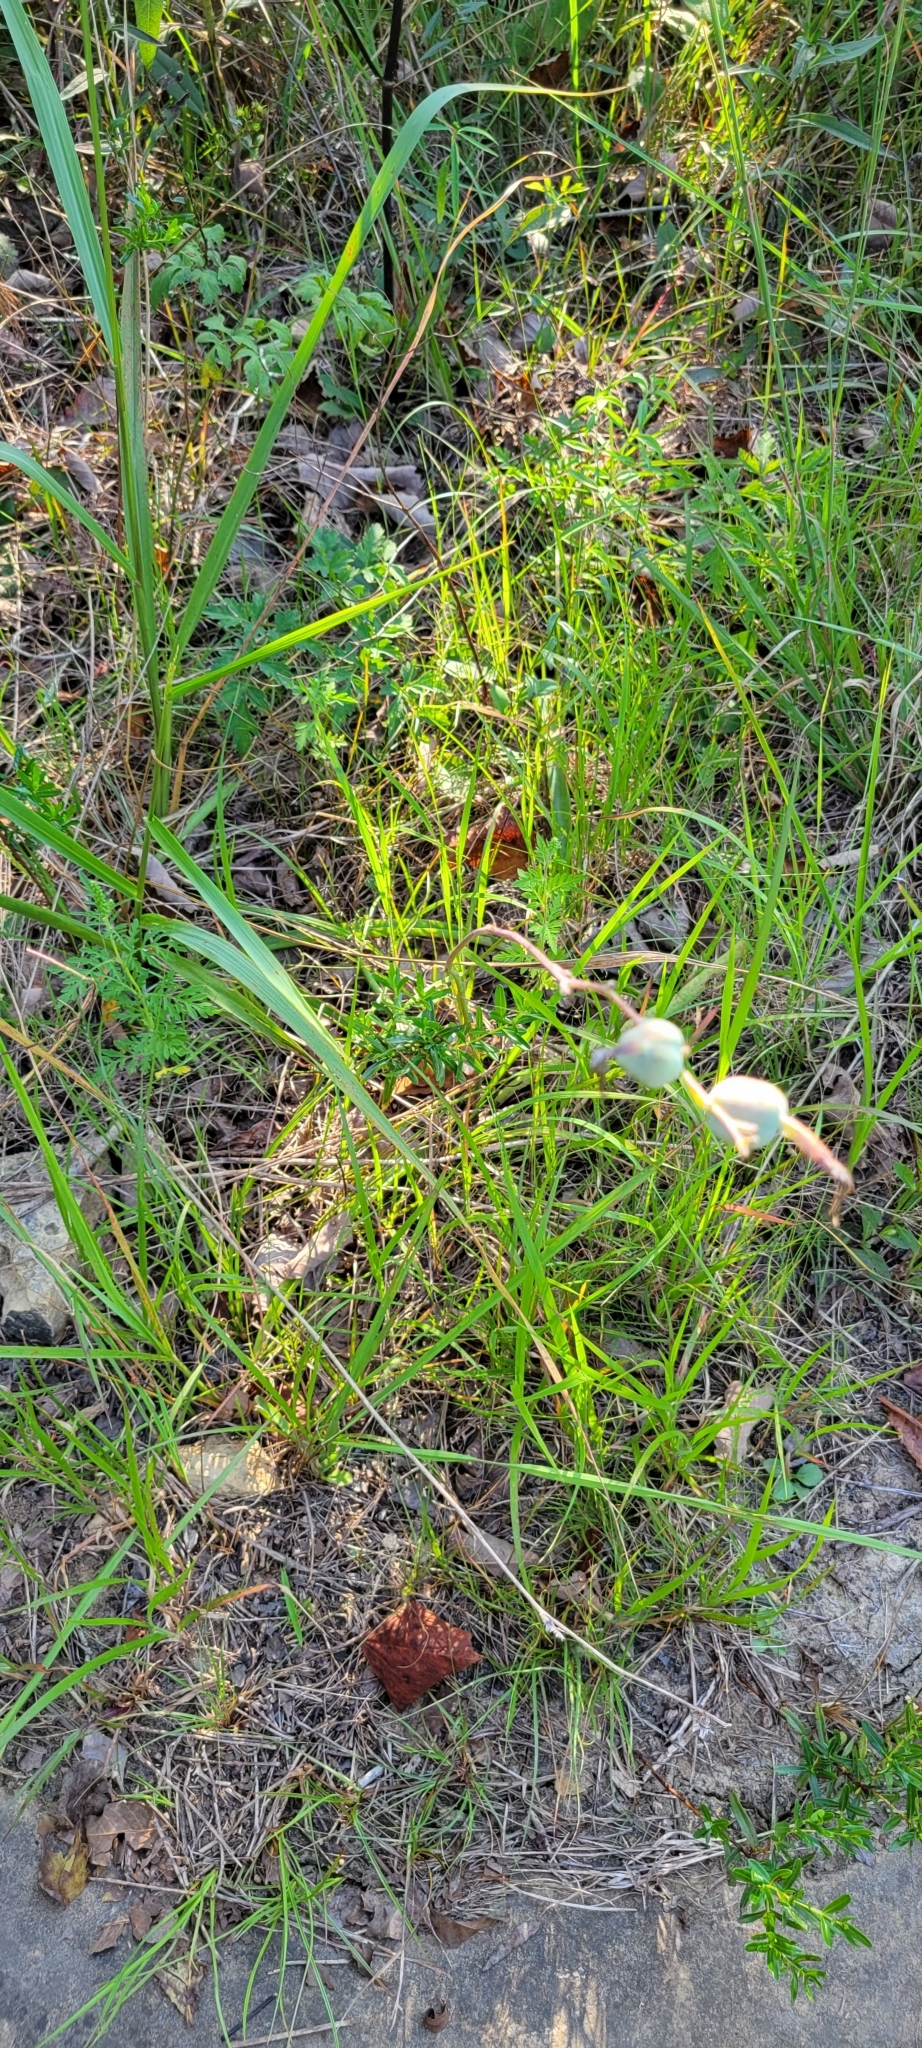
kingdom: Plantae
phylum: Tracheophyta
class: Liliopsida
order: Asparagales
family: Asparagaceae
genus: Agave
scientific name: Agave virginica
